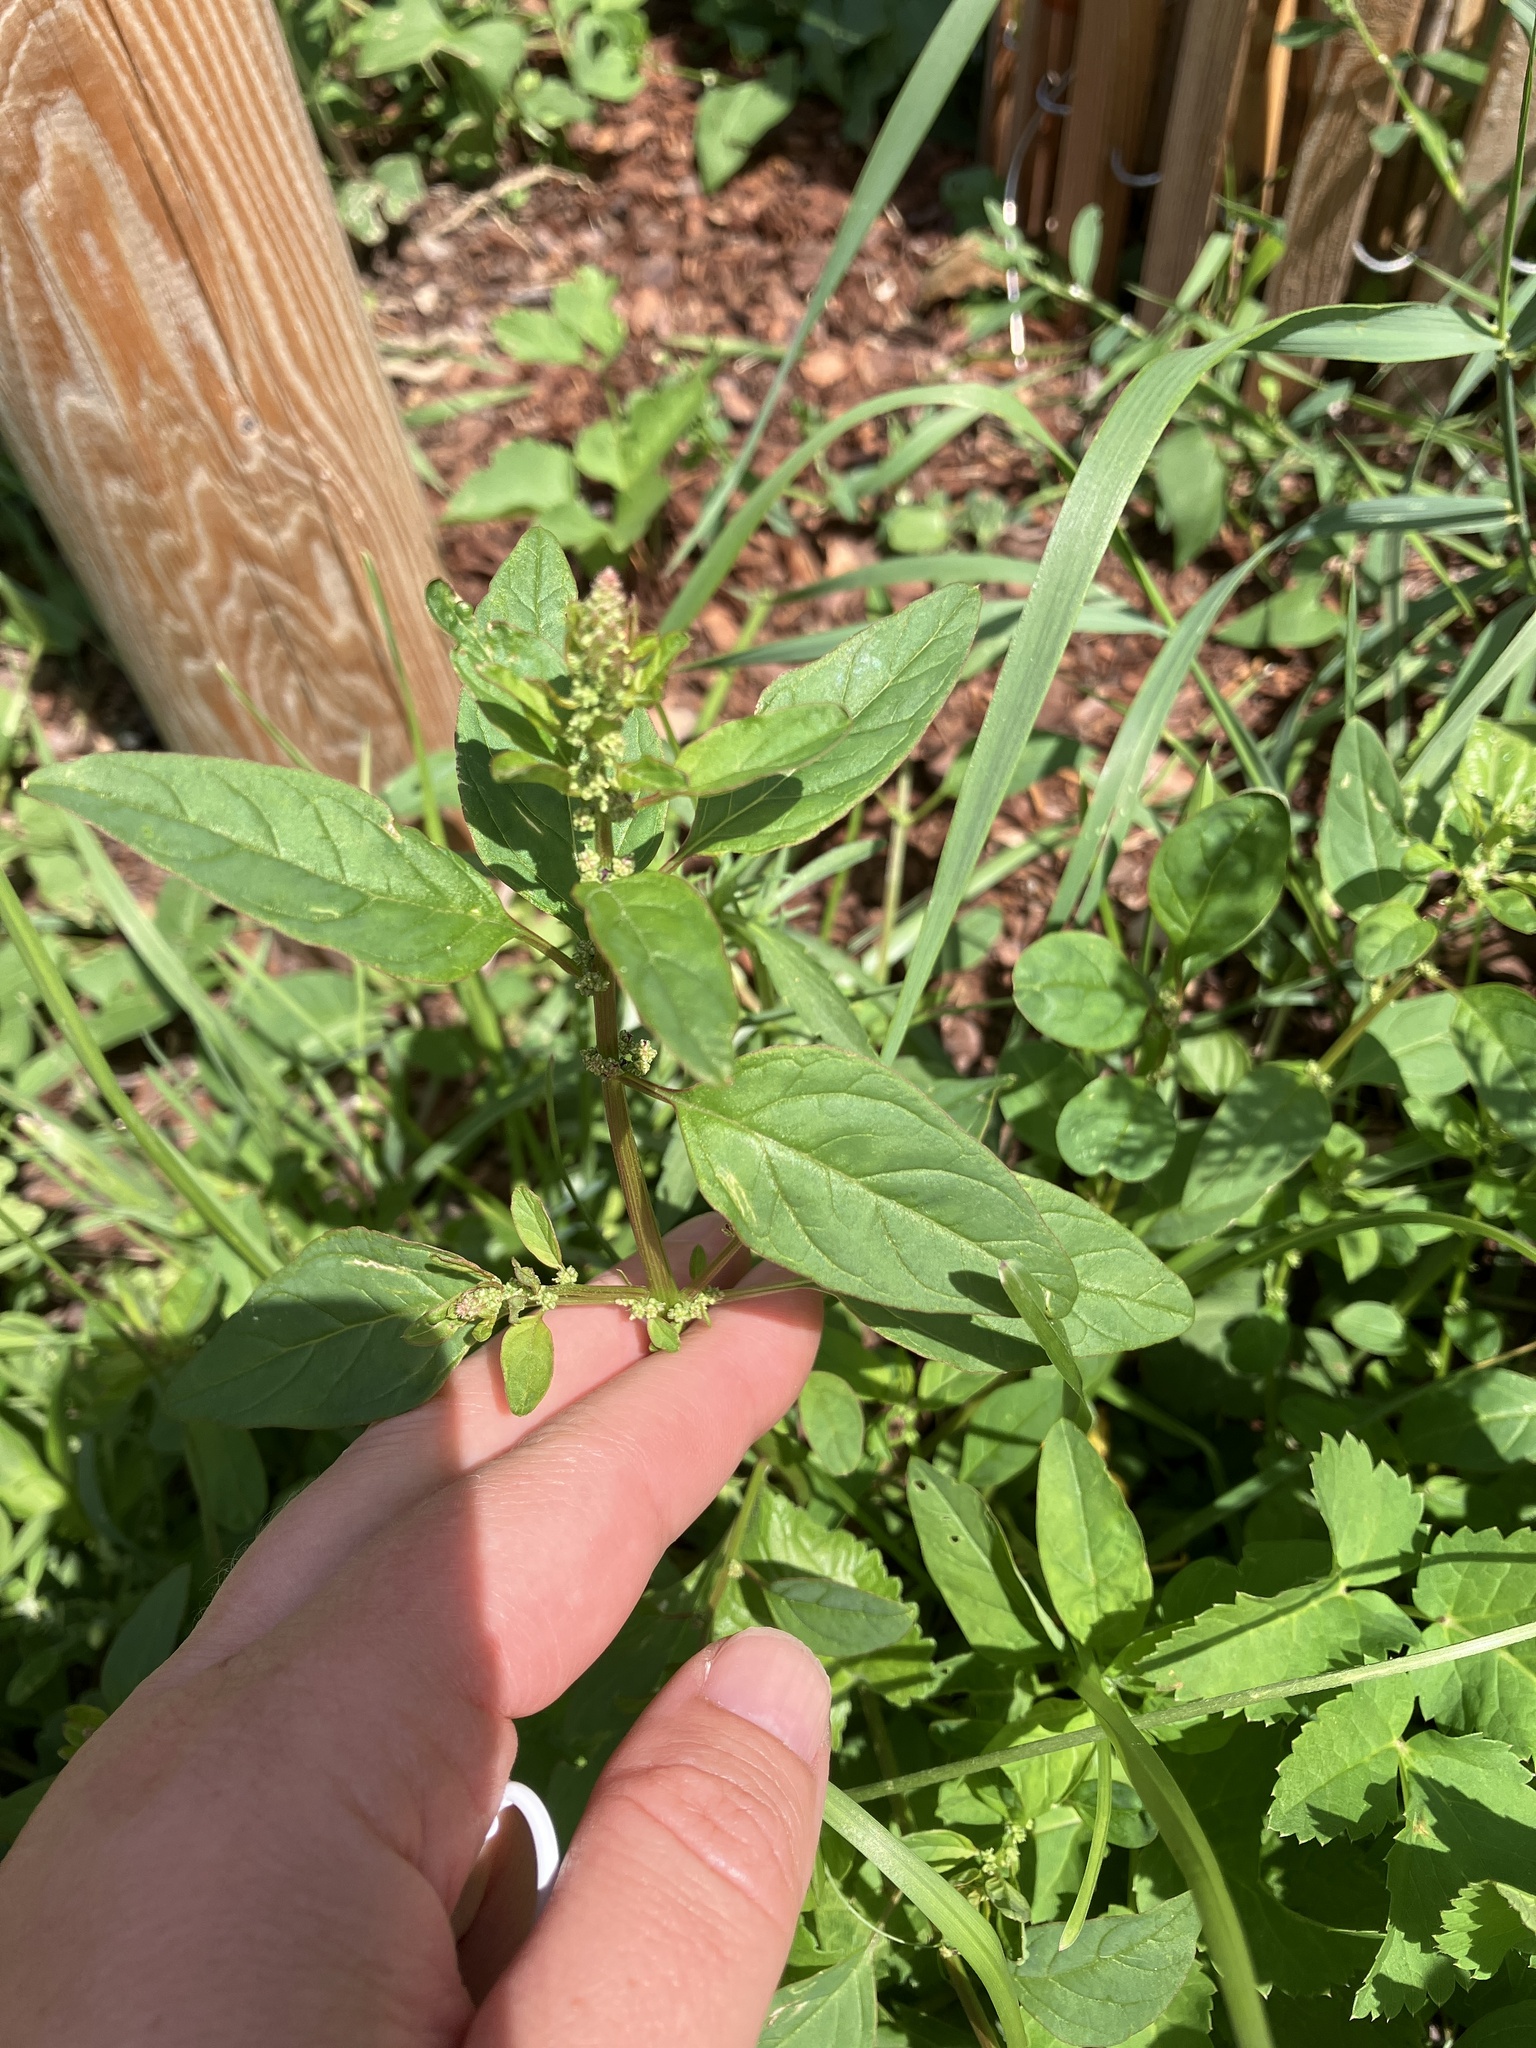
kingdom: Plantae
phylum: Tracheophyta
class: Magnoliopsida
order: Caryophyllales
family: Amaranthaceae
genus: Lipandra
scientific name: Lipandra polysperma
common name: Many-seed goosefoot
